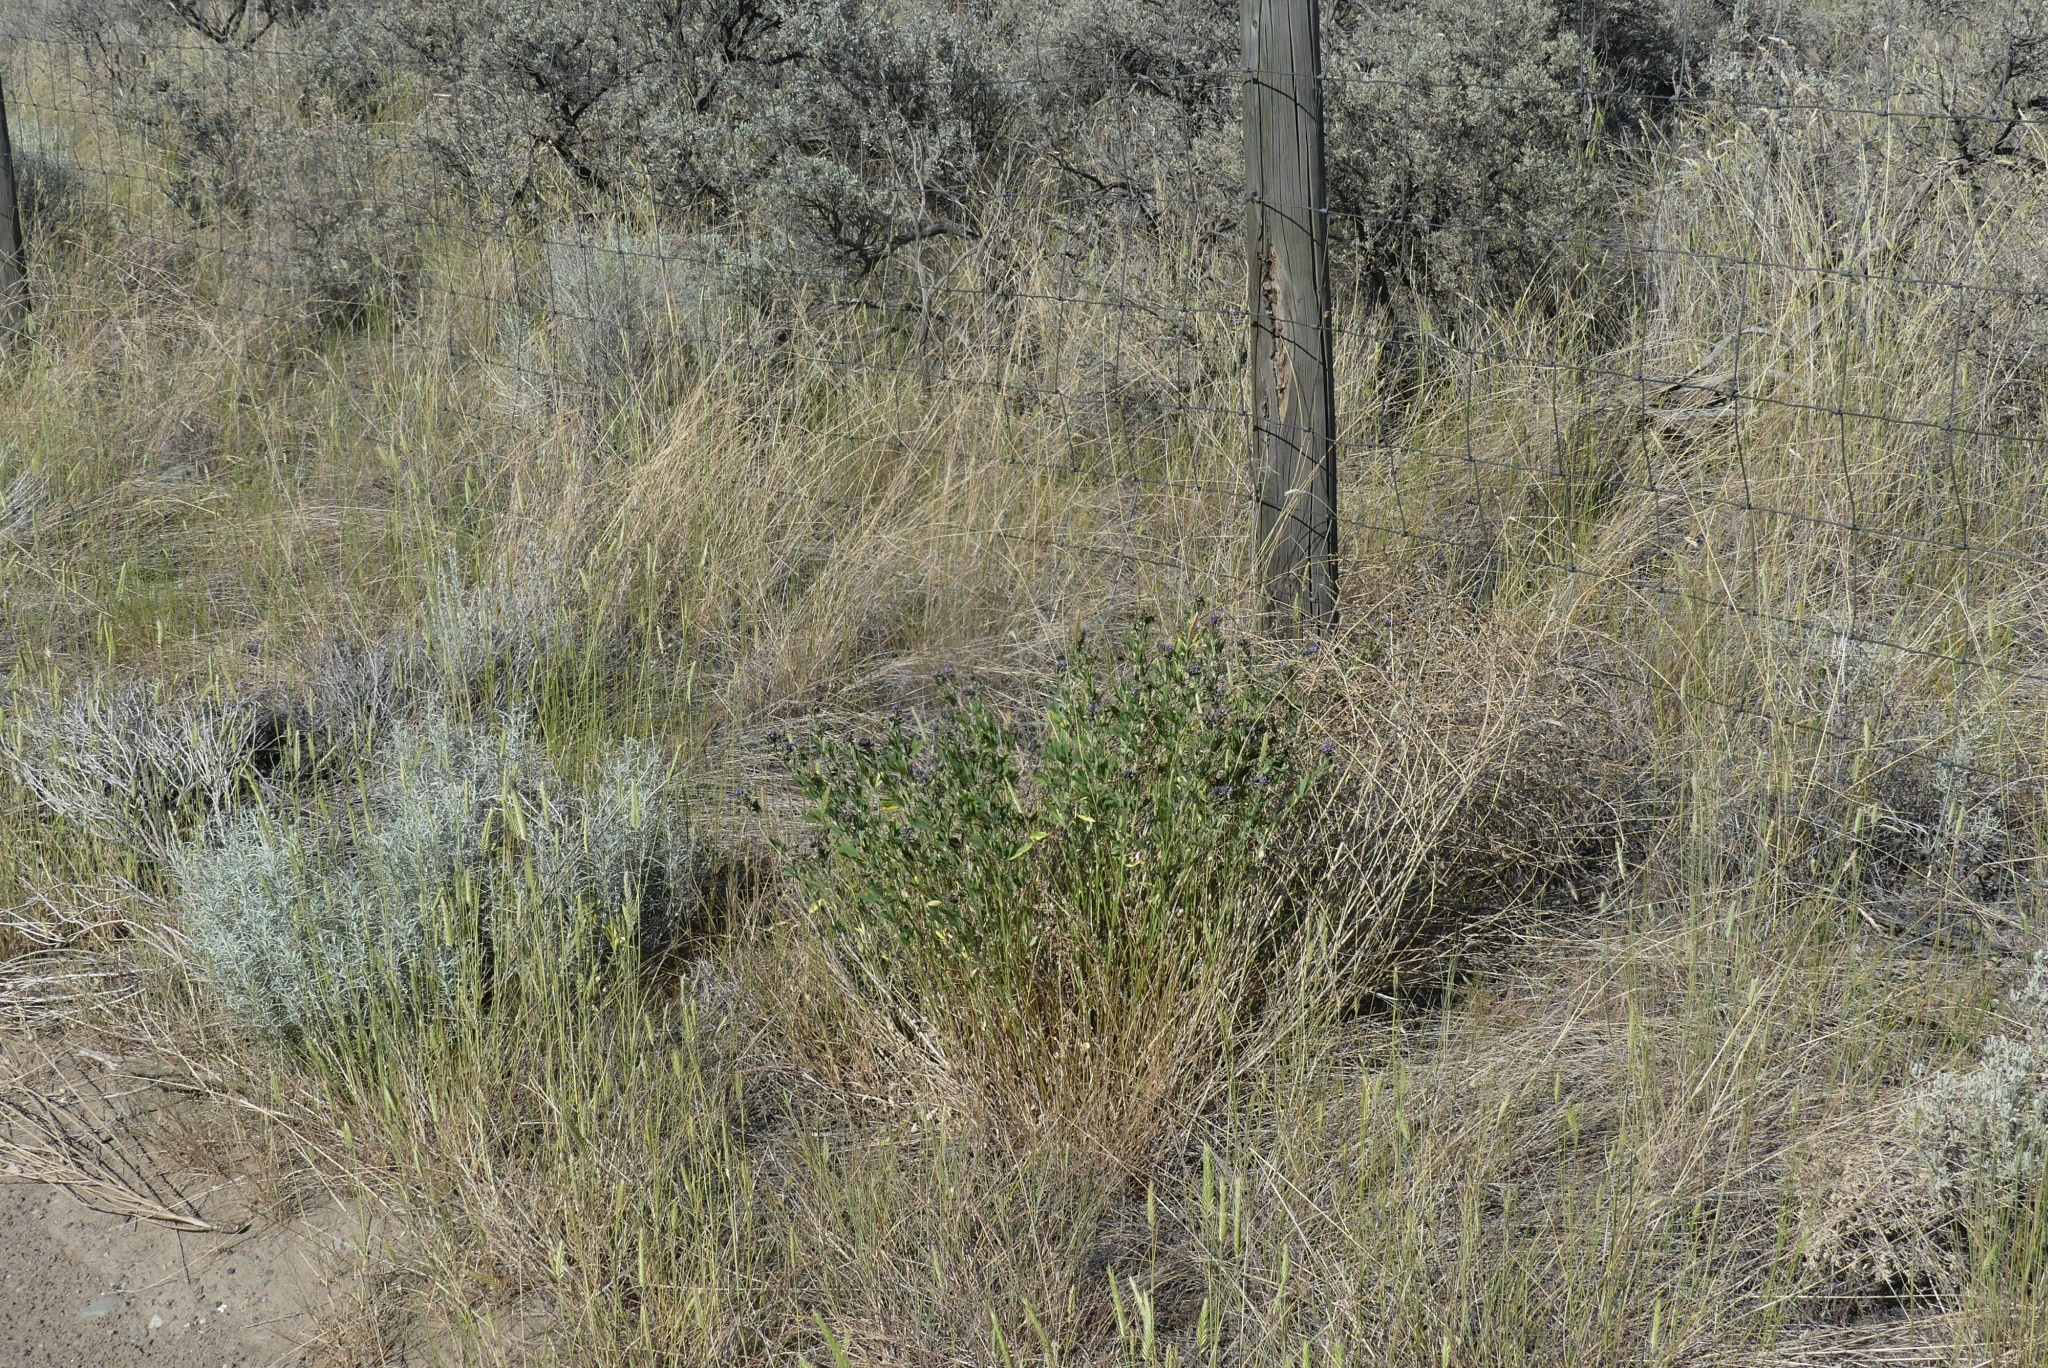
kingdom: Plantae
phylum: Tracheophyta
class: Magnoliopsida
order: Fabales
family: Fabaceae
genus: Medicago
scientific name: Medicago sativa
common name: Alfalfa
